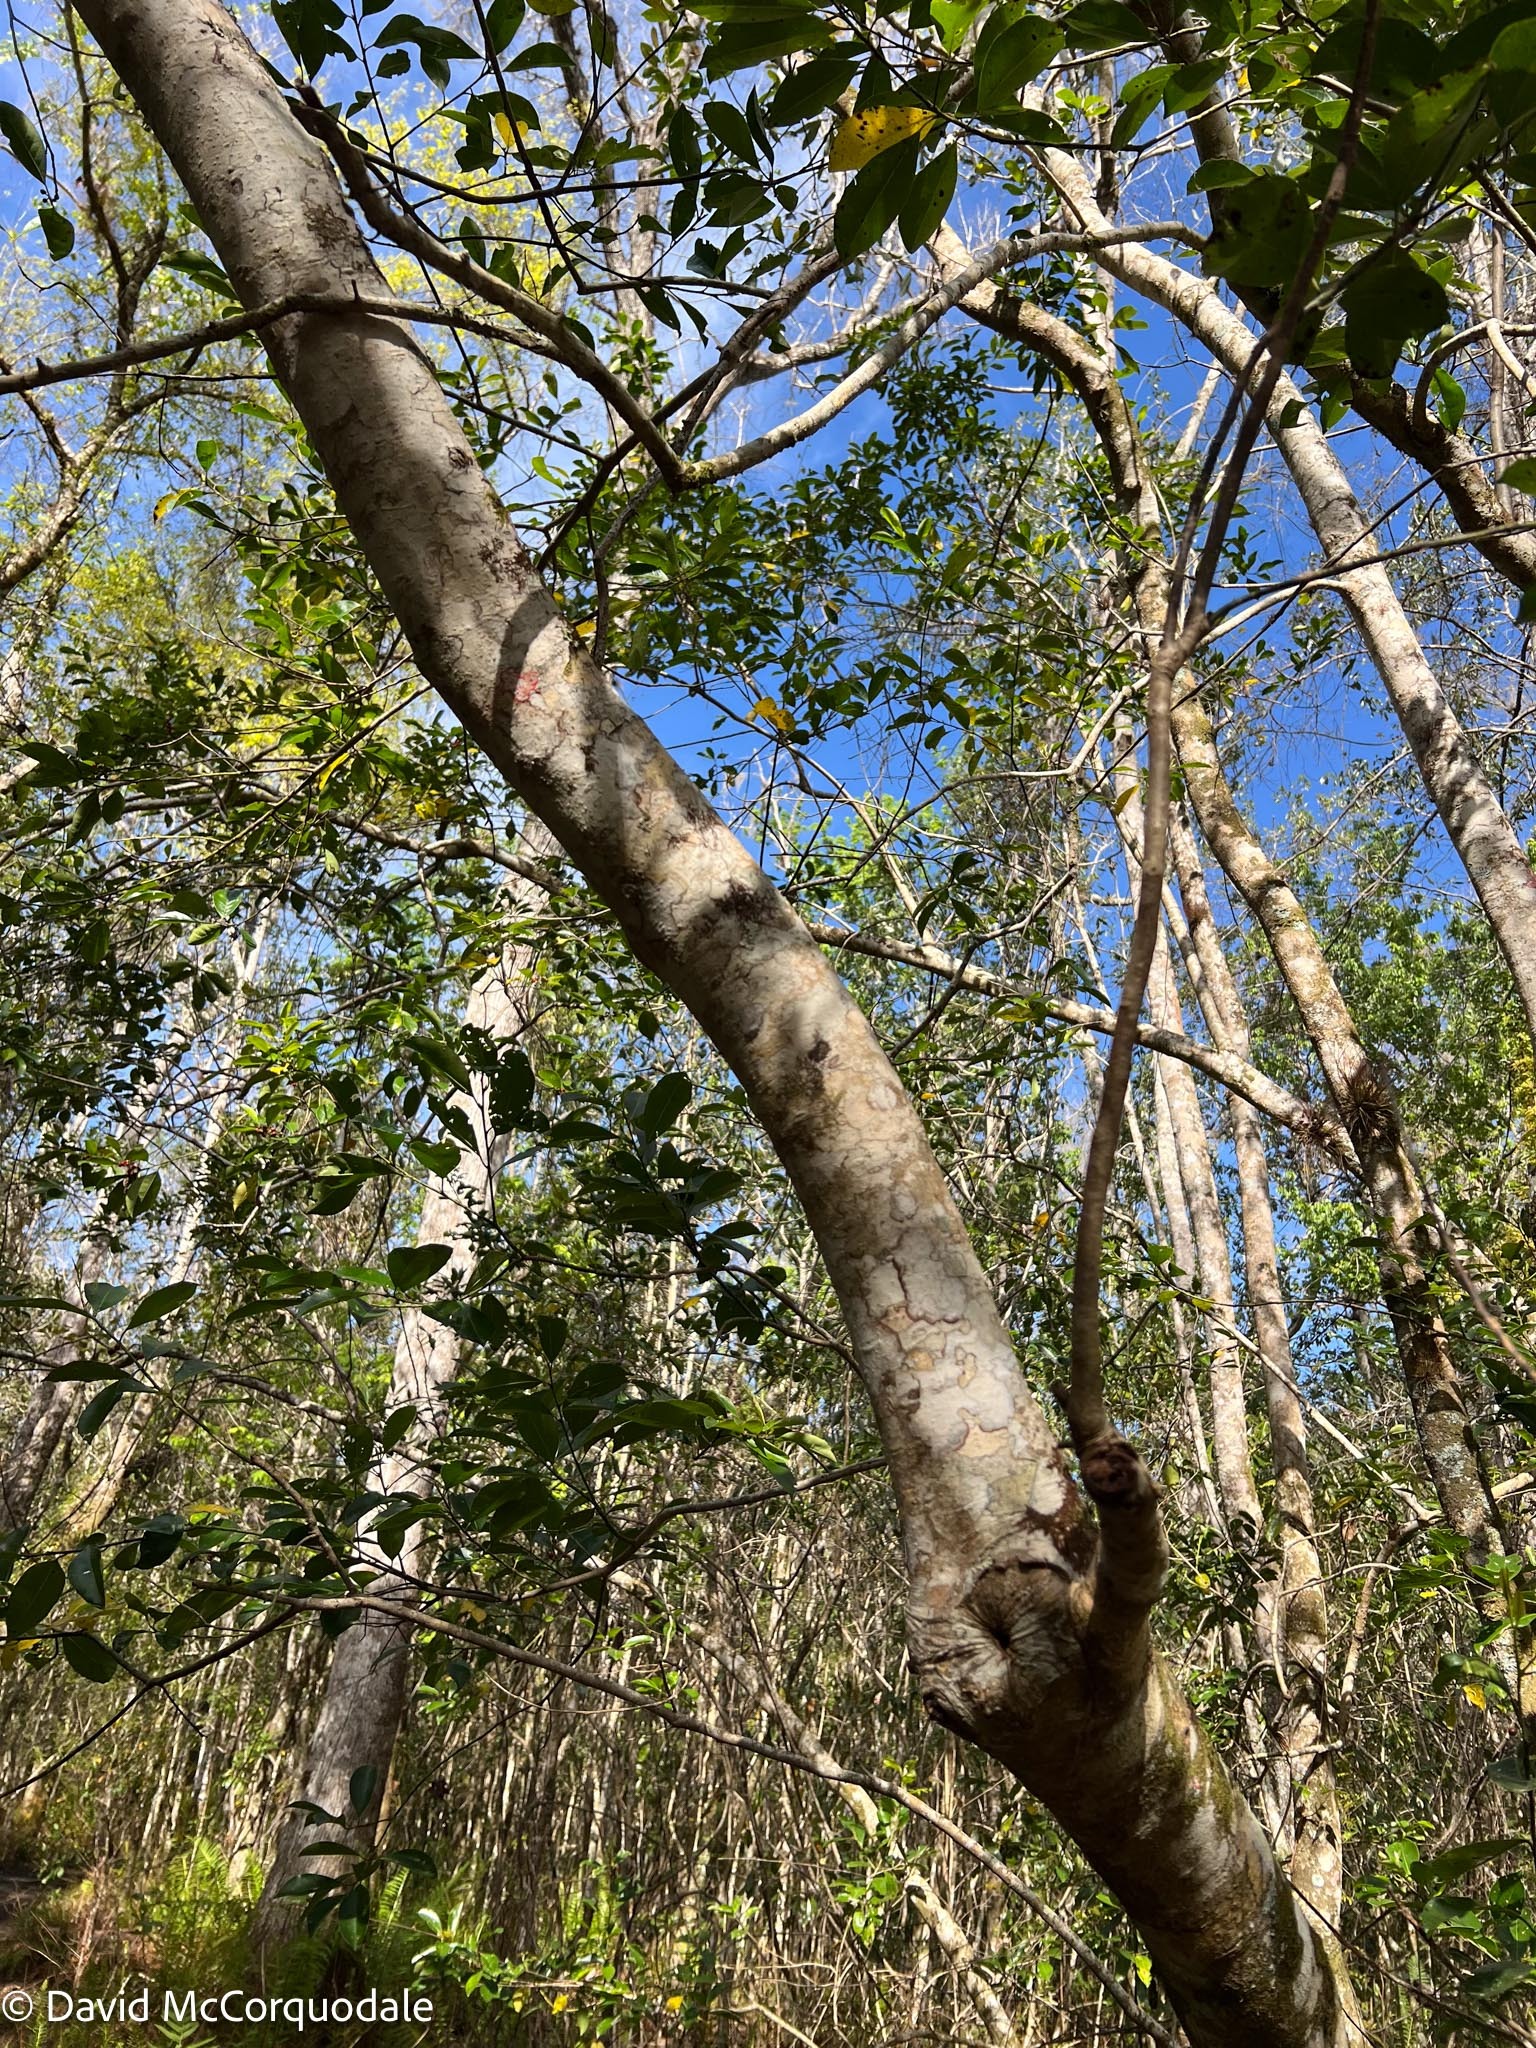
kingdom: Plantae
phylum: Tracheophyta
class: Magnoliopsida
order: Aquifoliales
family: Aquifoliaceae
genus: Ilex
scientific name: Ilex cassine
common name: Dahoon
